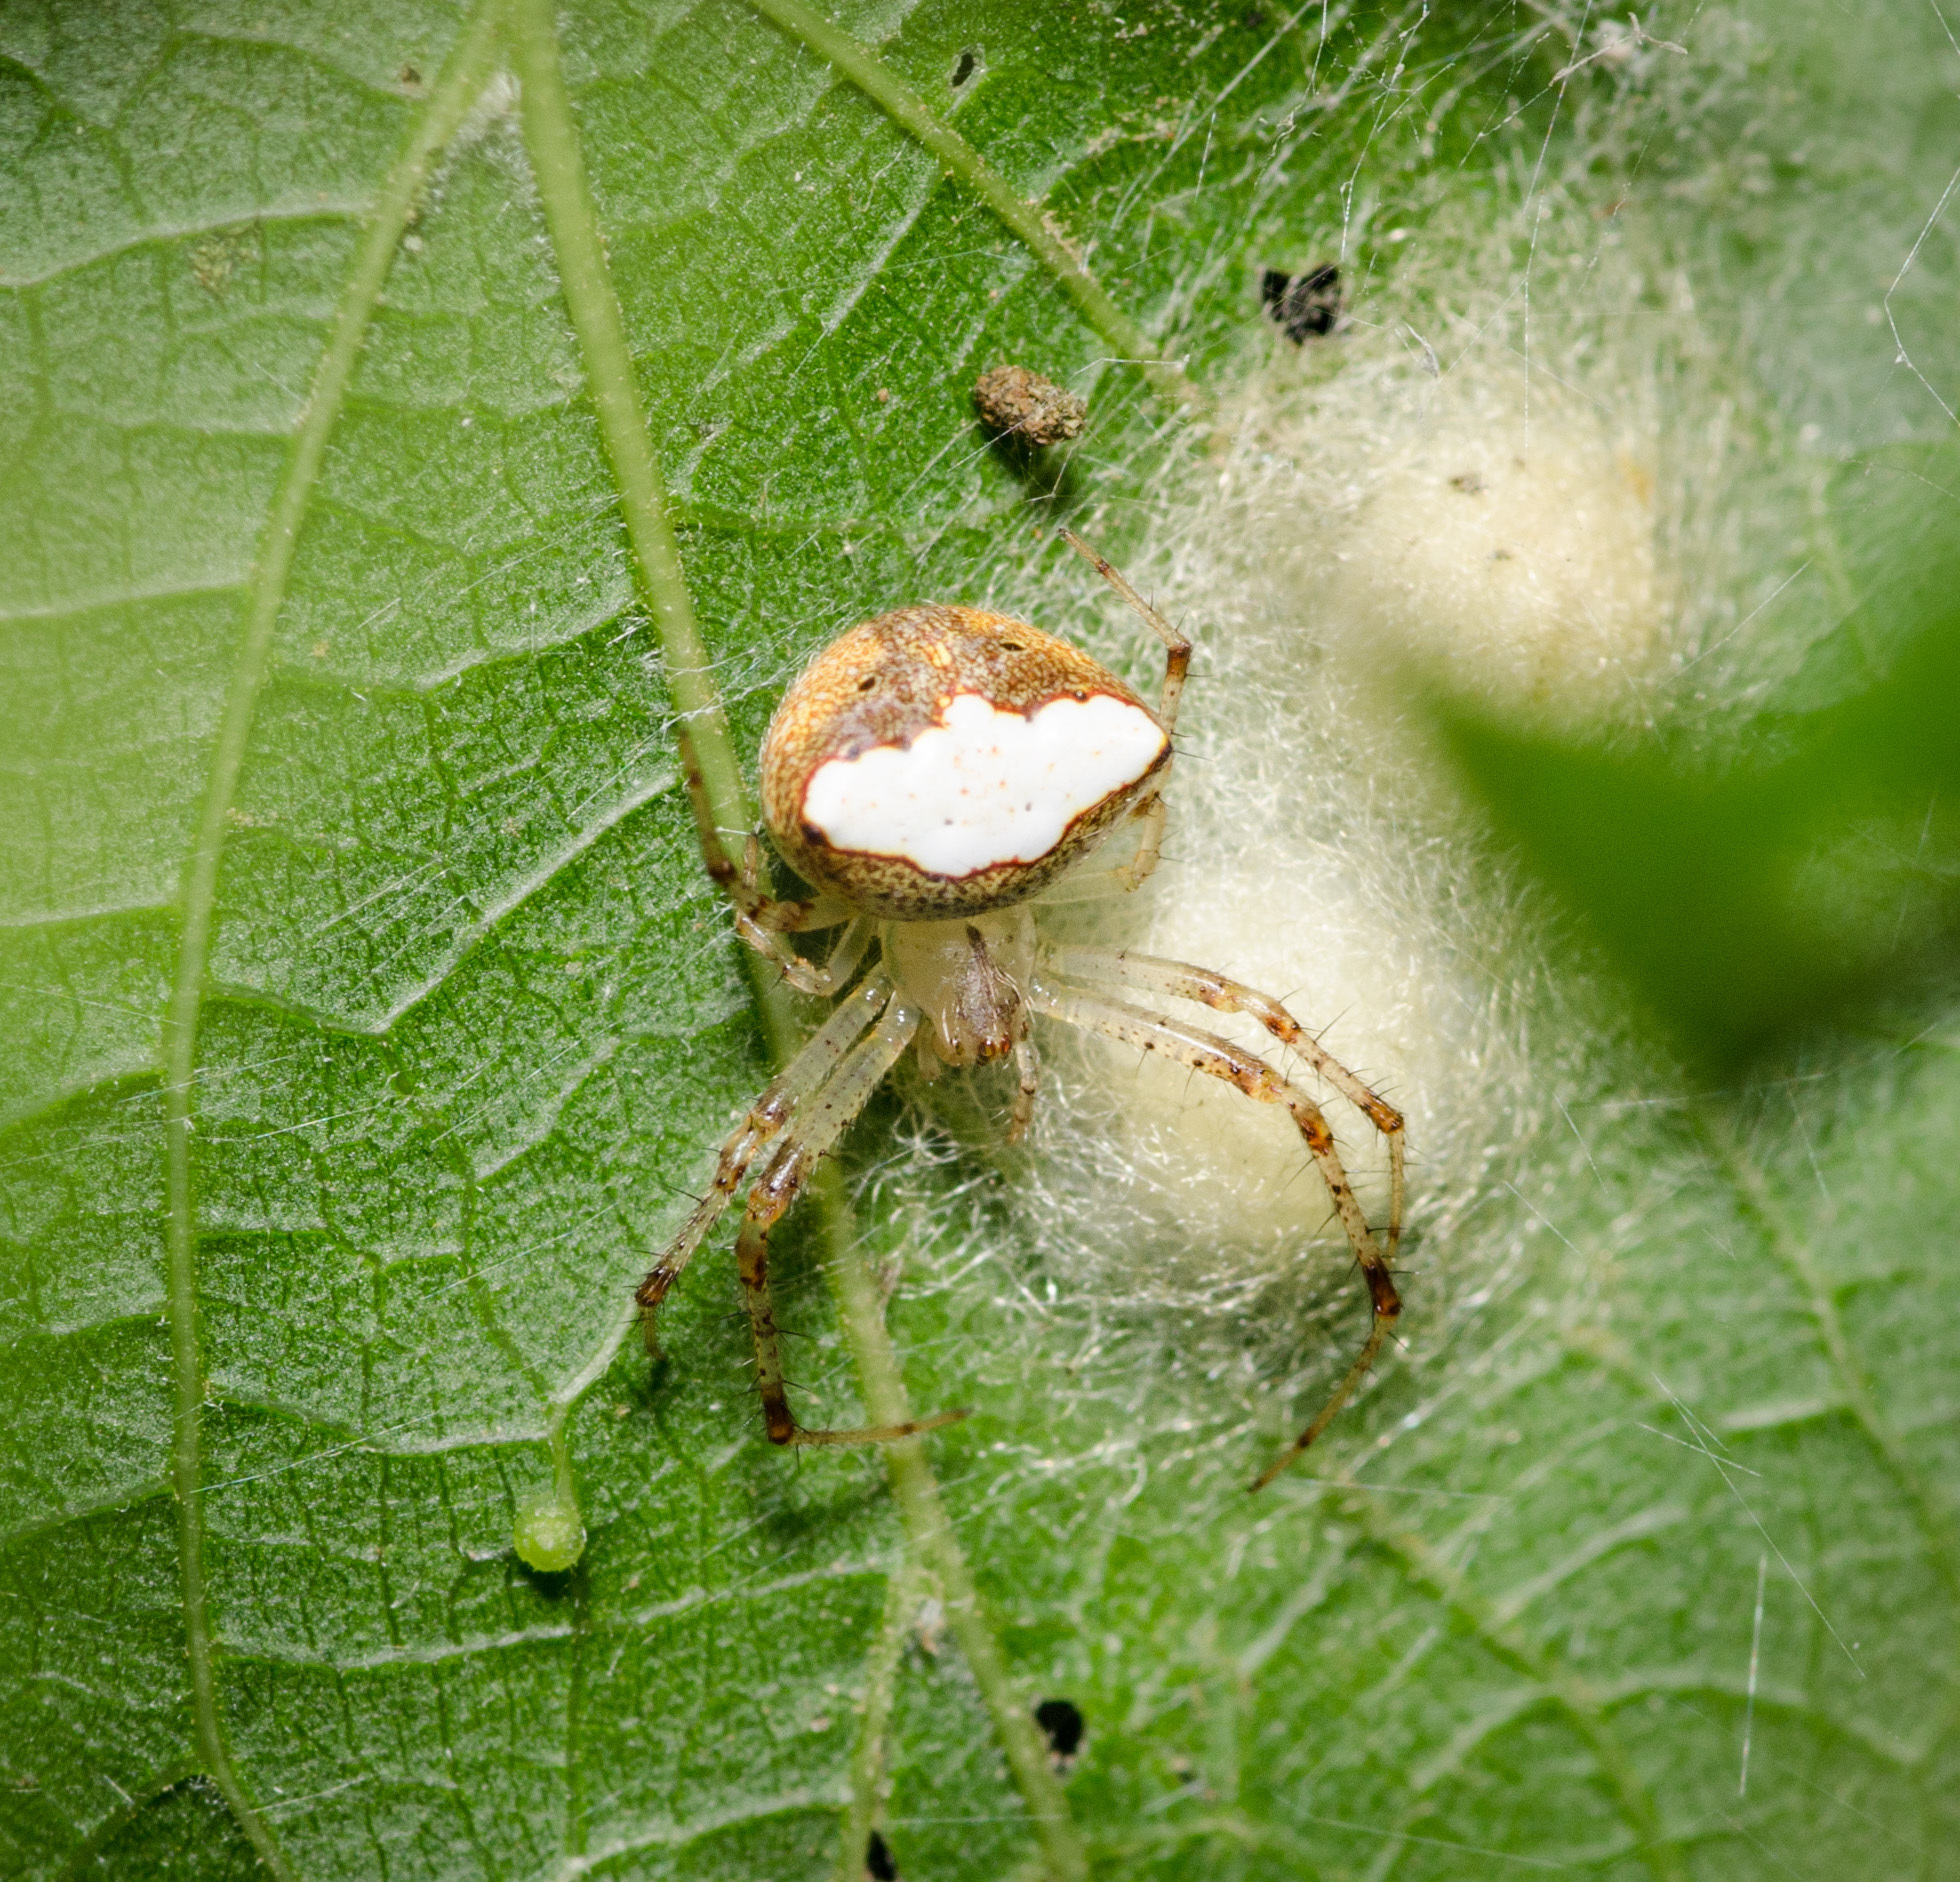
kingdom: Animalia
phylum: Arthropoda
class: Arachnida
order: Araneae
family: Araneidae
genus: Araneus
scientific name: Araneus miniatus
